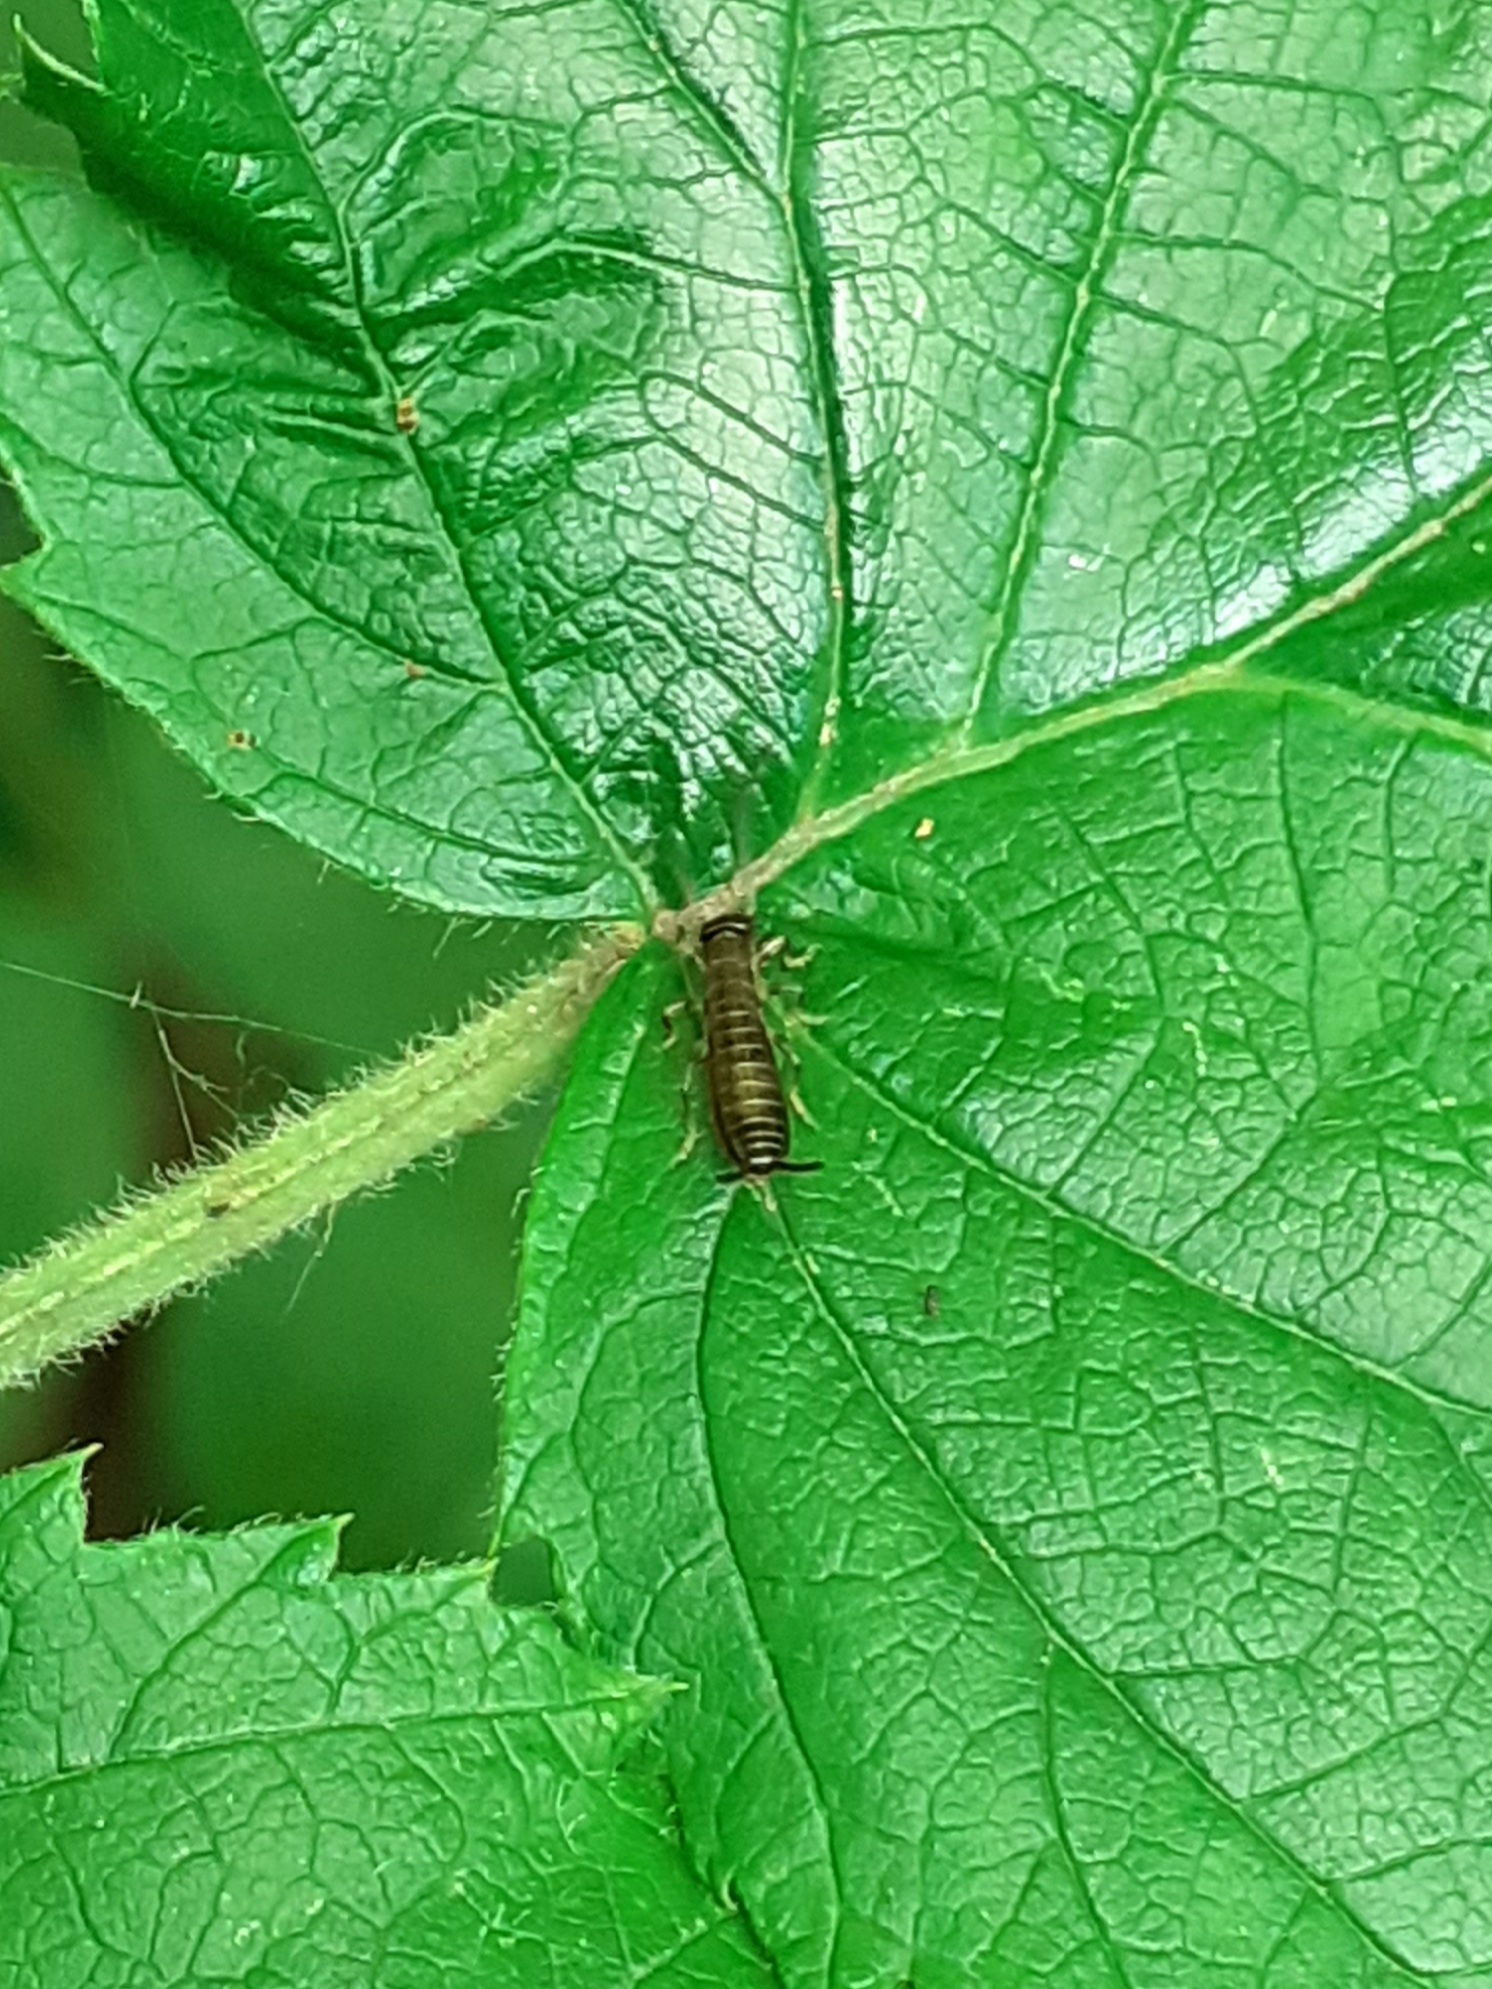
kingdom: Animalia
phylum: Arthropoda
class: Insecta
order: Dermaptera
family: Forficulidae
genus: Apterygida
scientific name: Apterygida albipennis
